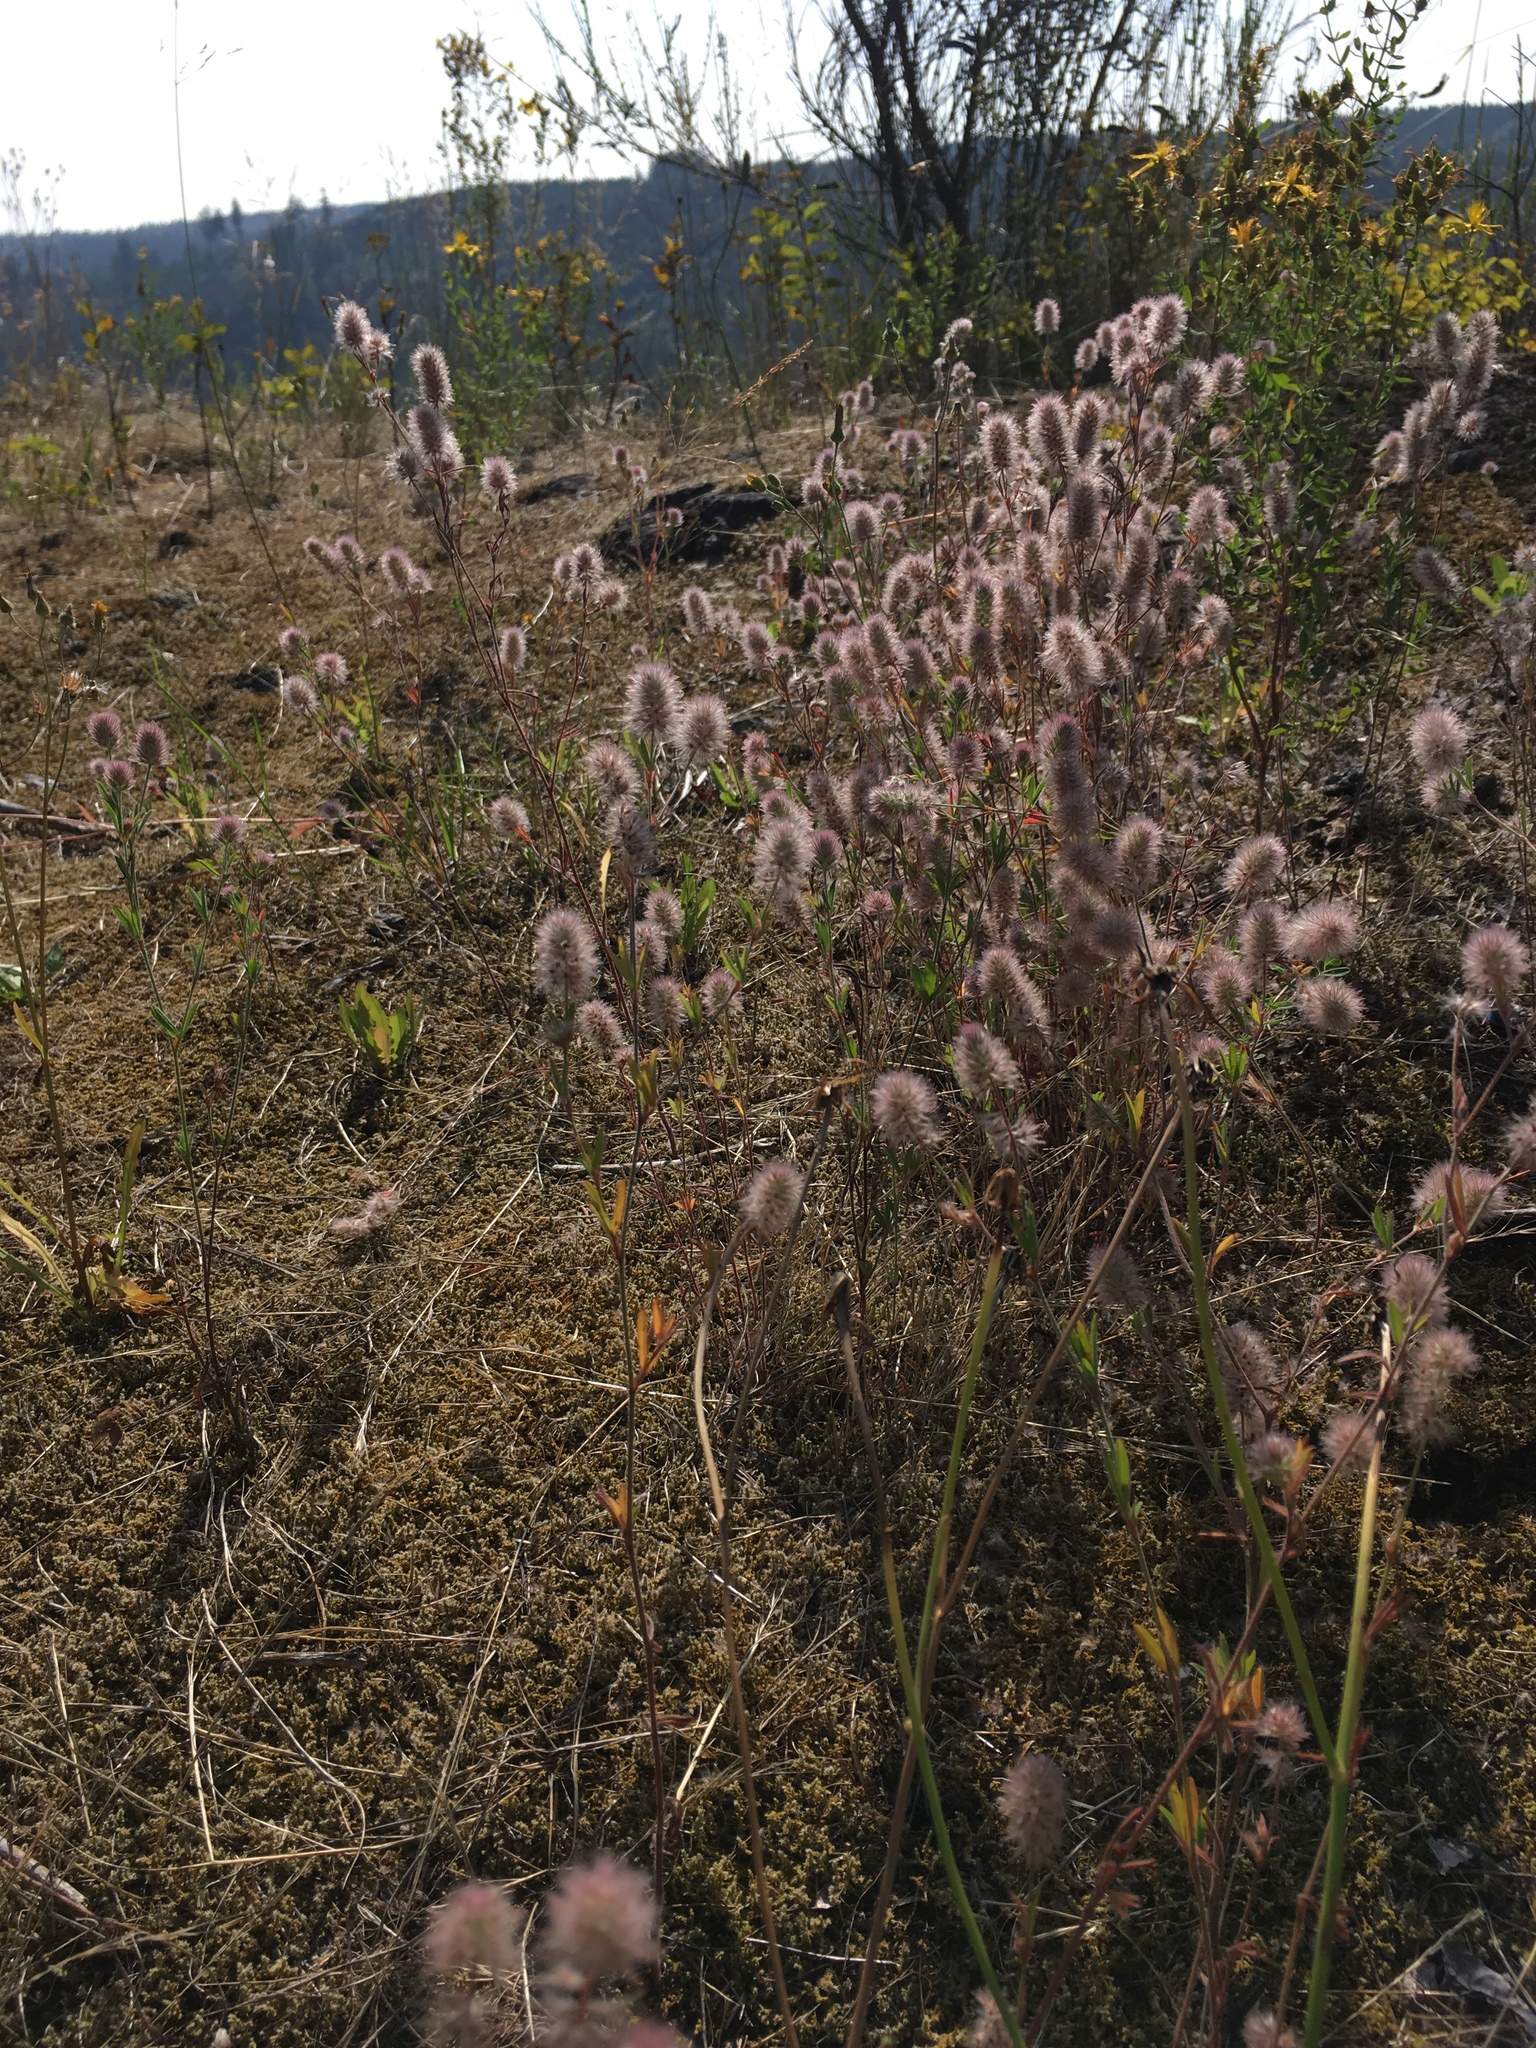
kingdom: Plantae
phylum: Tracheophyta
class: Magnoliopsida
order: Fabales
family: Fabaceae
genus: Trifolium
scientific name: Trifolium arvense
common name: Hare's-foot clover
